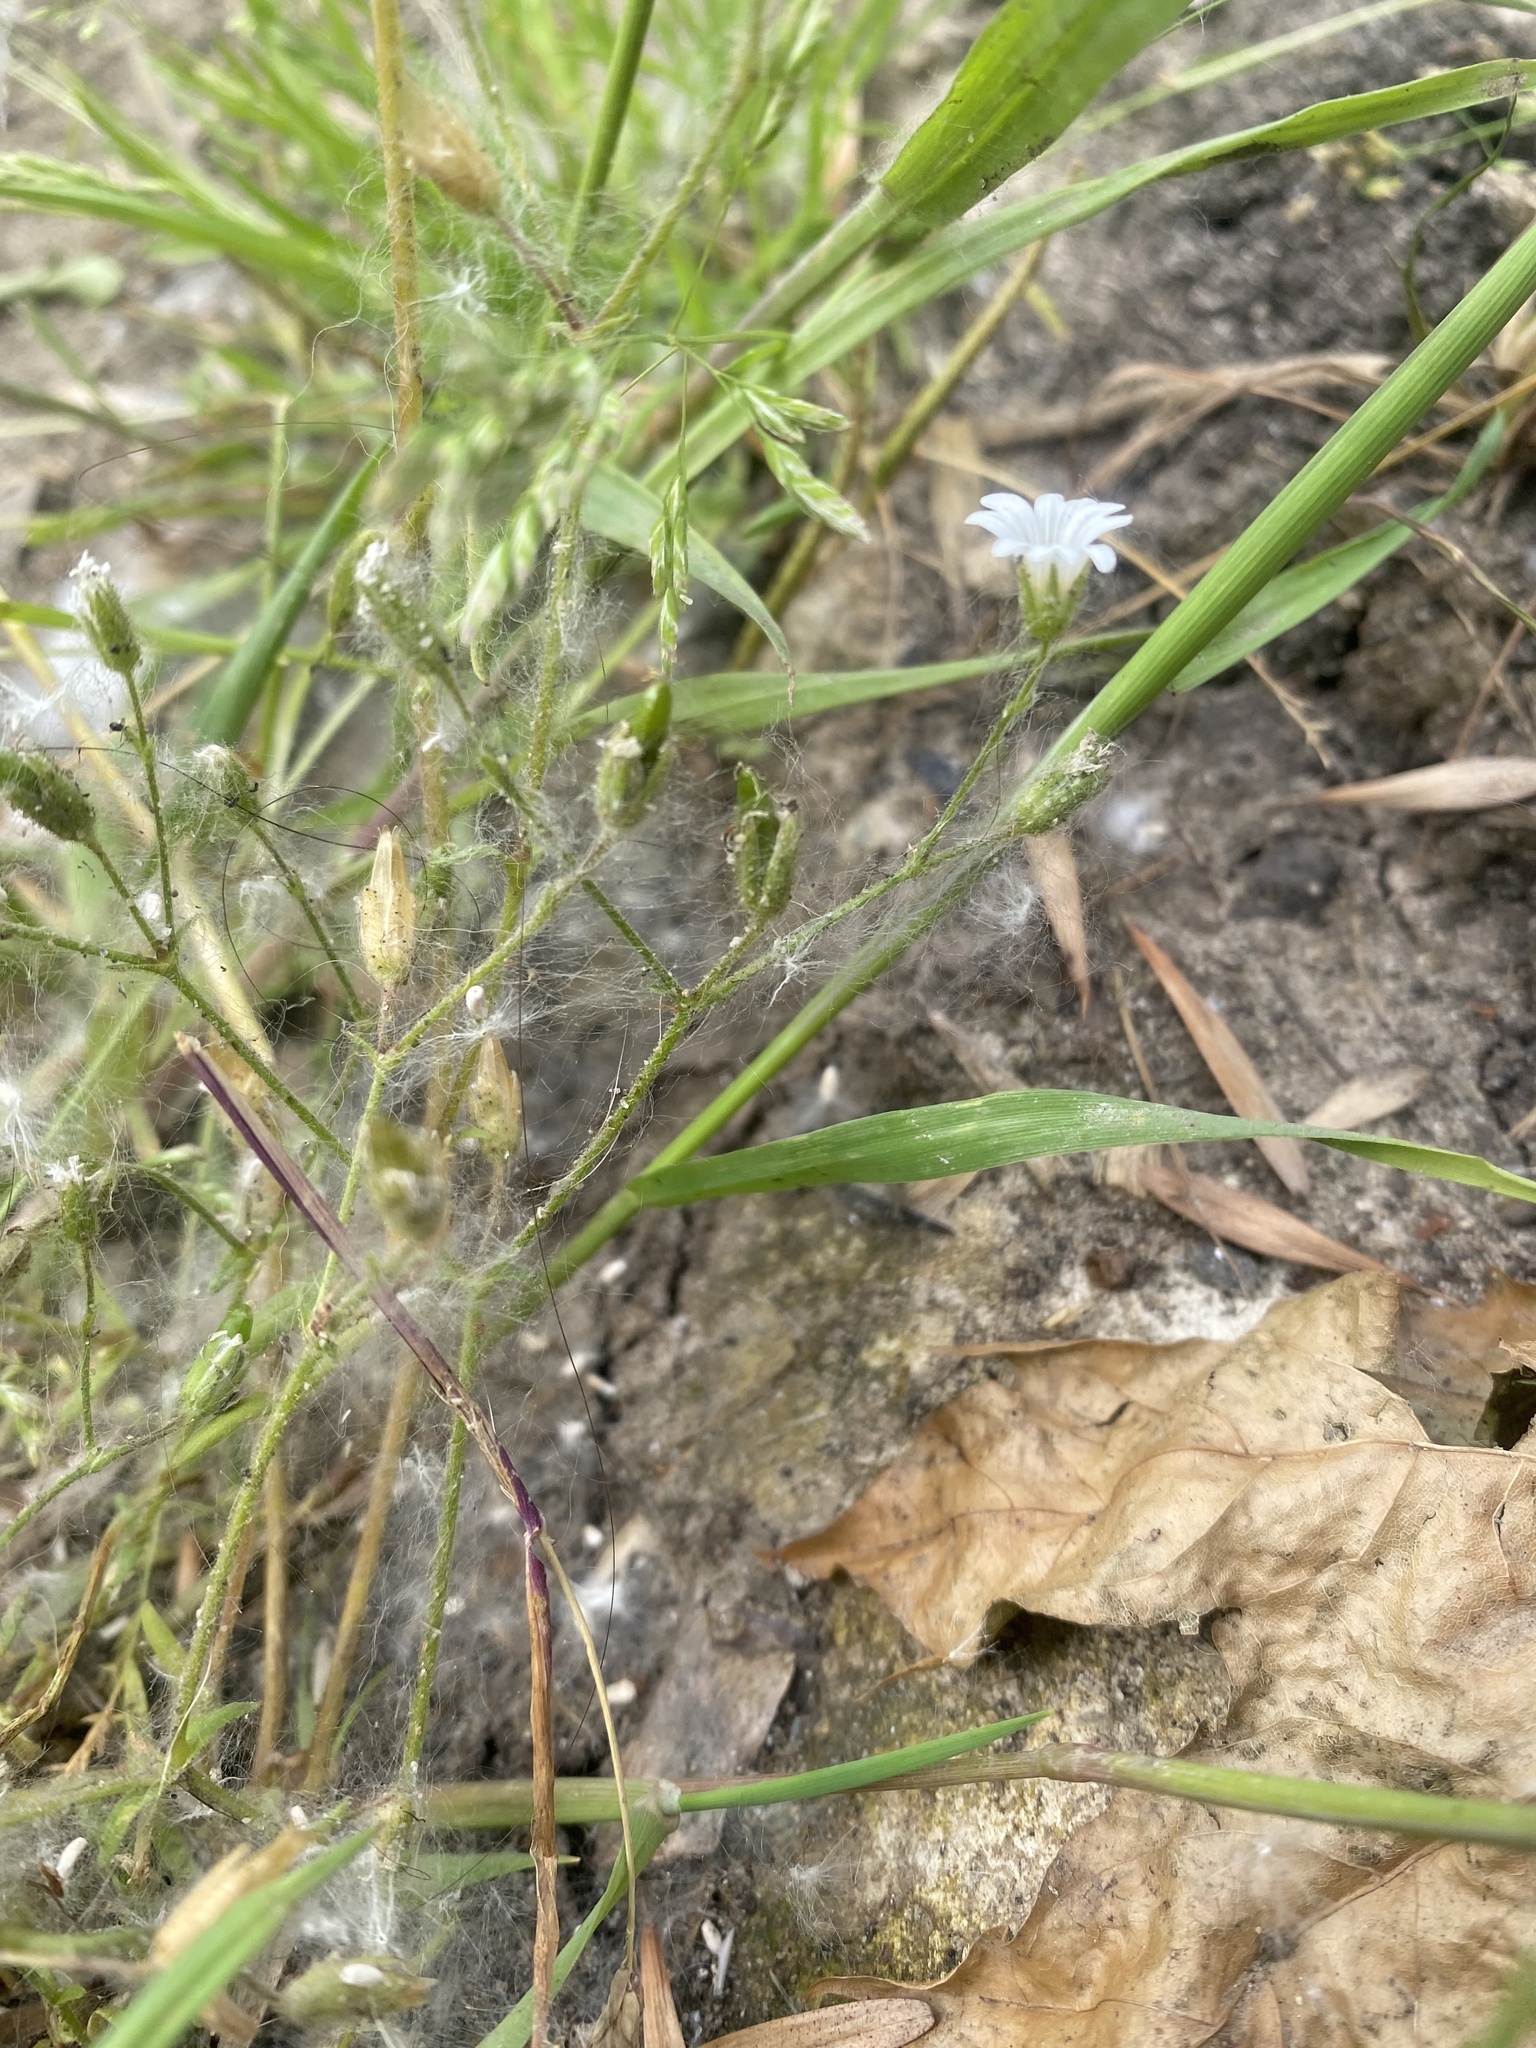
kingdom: Plantae
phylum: Tracheophyta
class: Magnoliopsida
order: Caryophyllales
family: Caryophyllaceae
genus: Dichodon
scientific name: Dichodon viscidum
